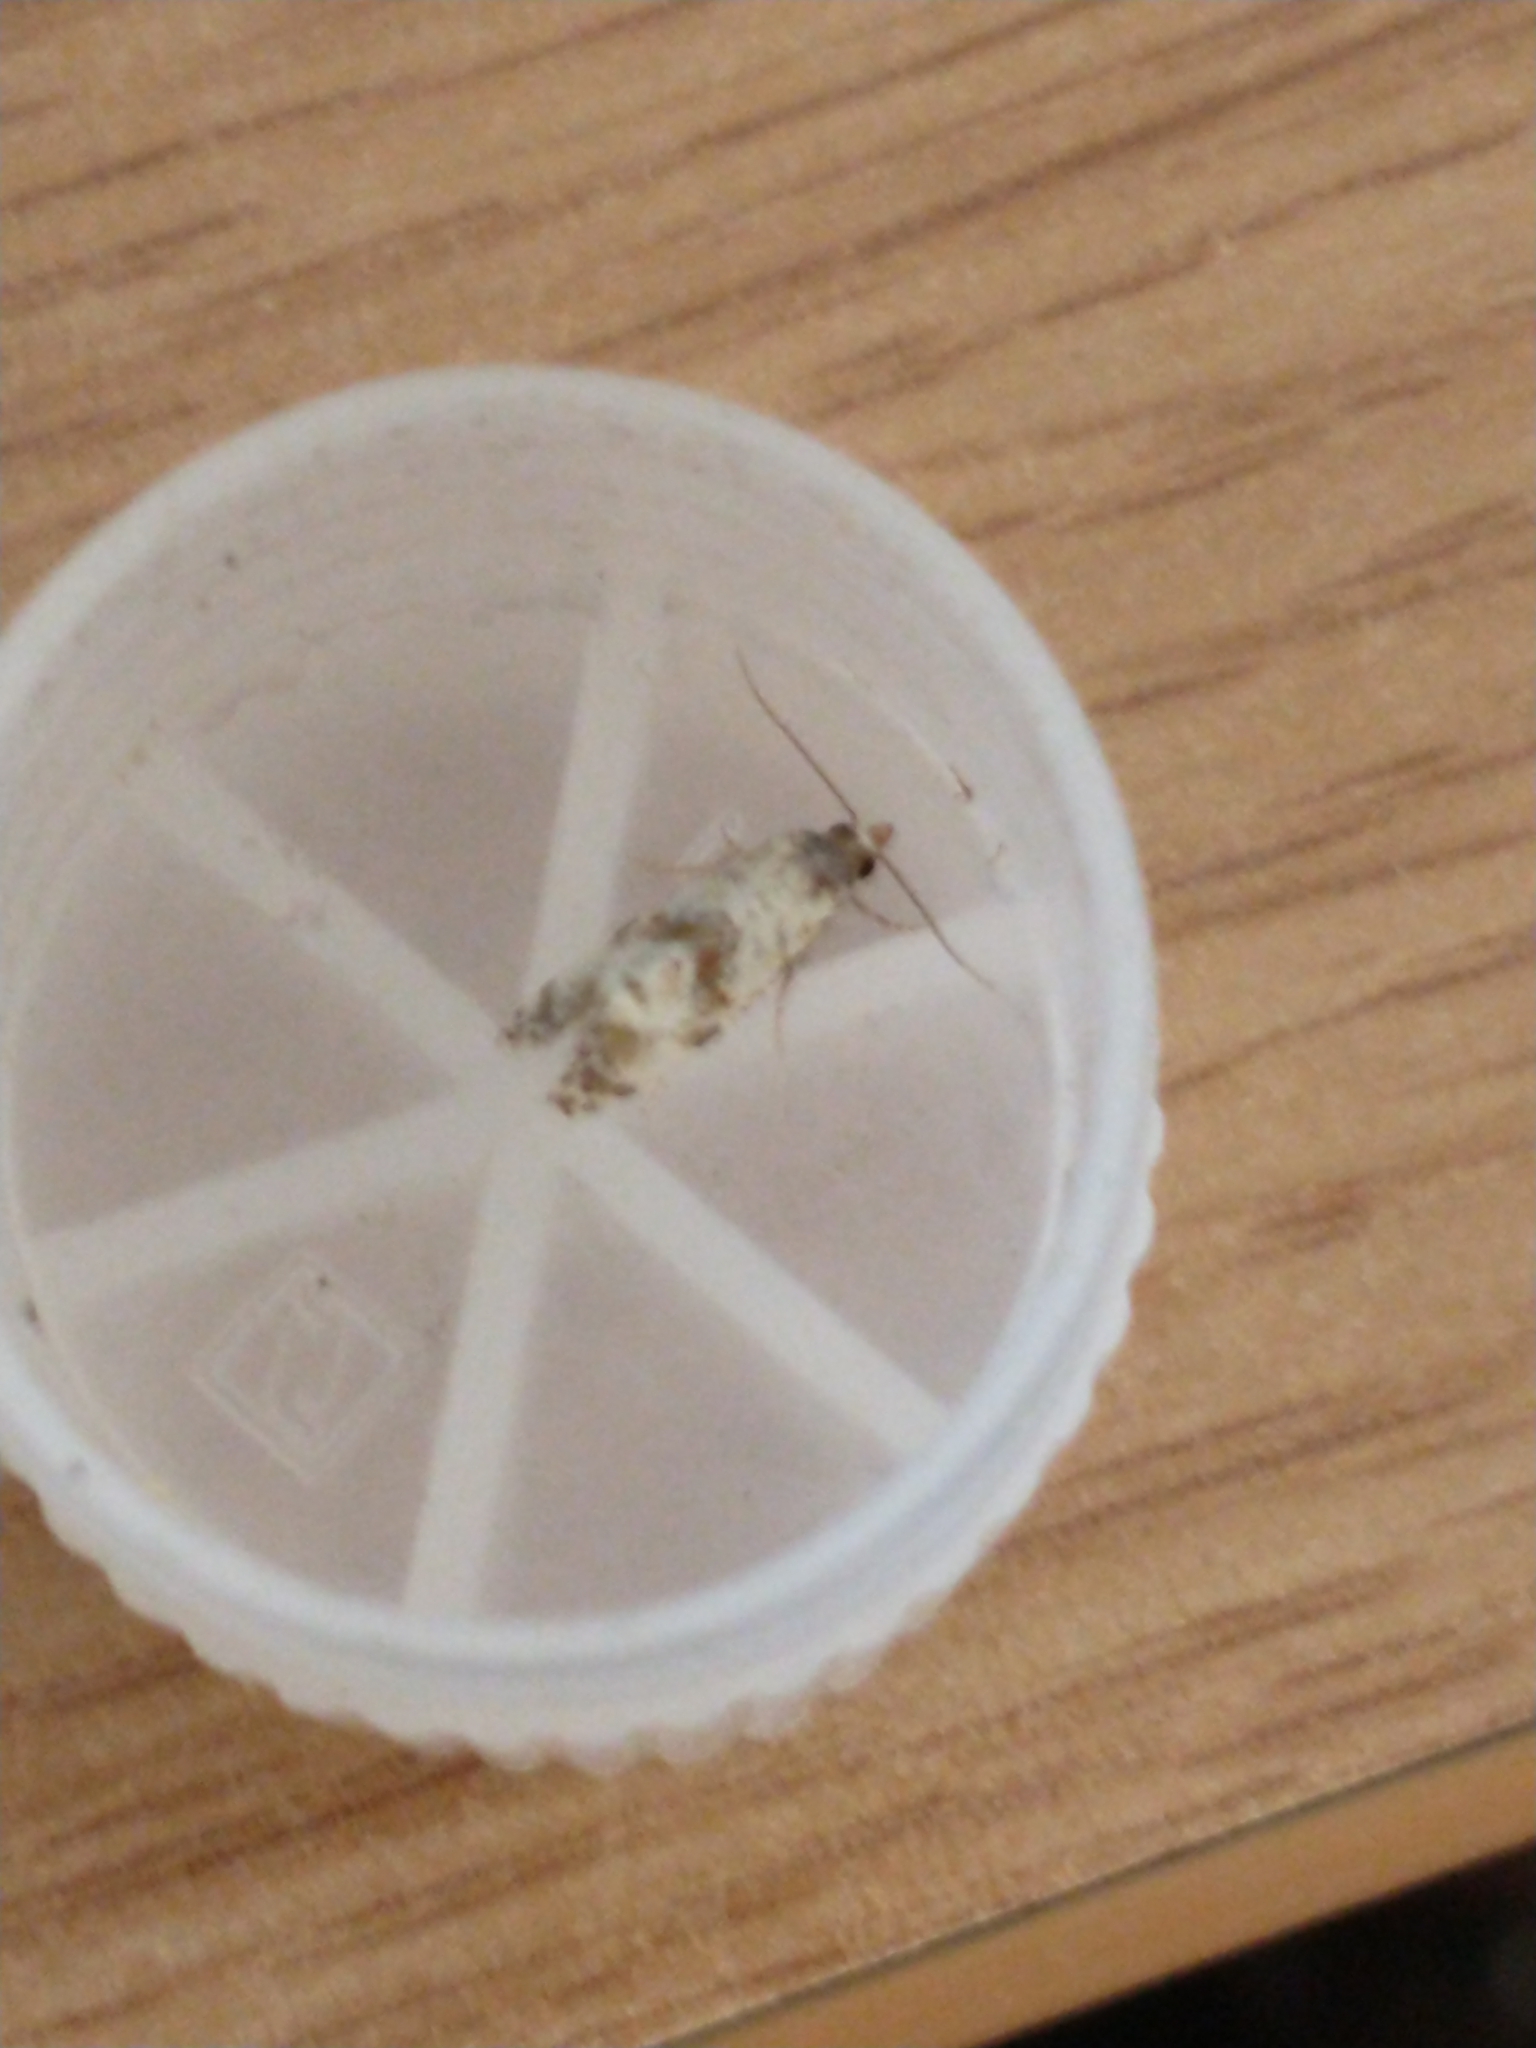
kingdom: Animalia
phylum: Arthropoda
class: Insecta
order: Lepidoptera
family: Tortricidae
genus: Cochylis
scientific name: Cochylis hybridella
